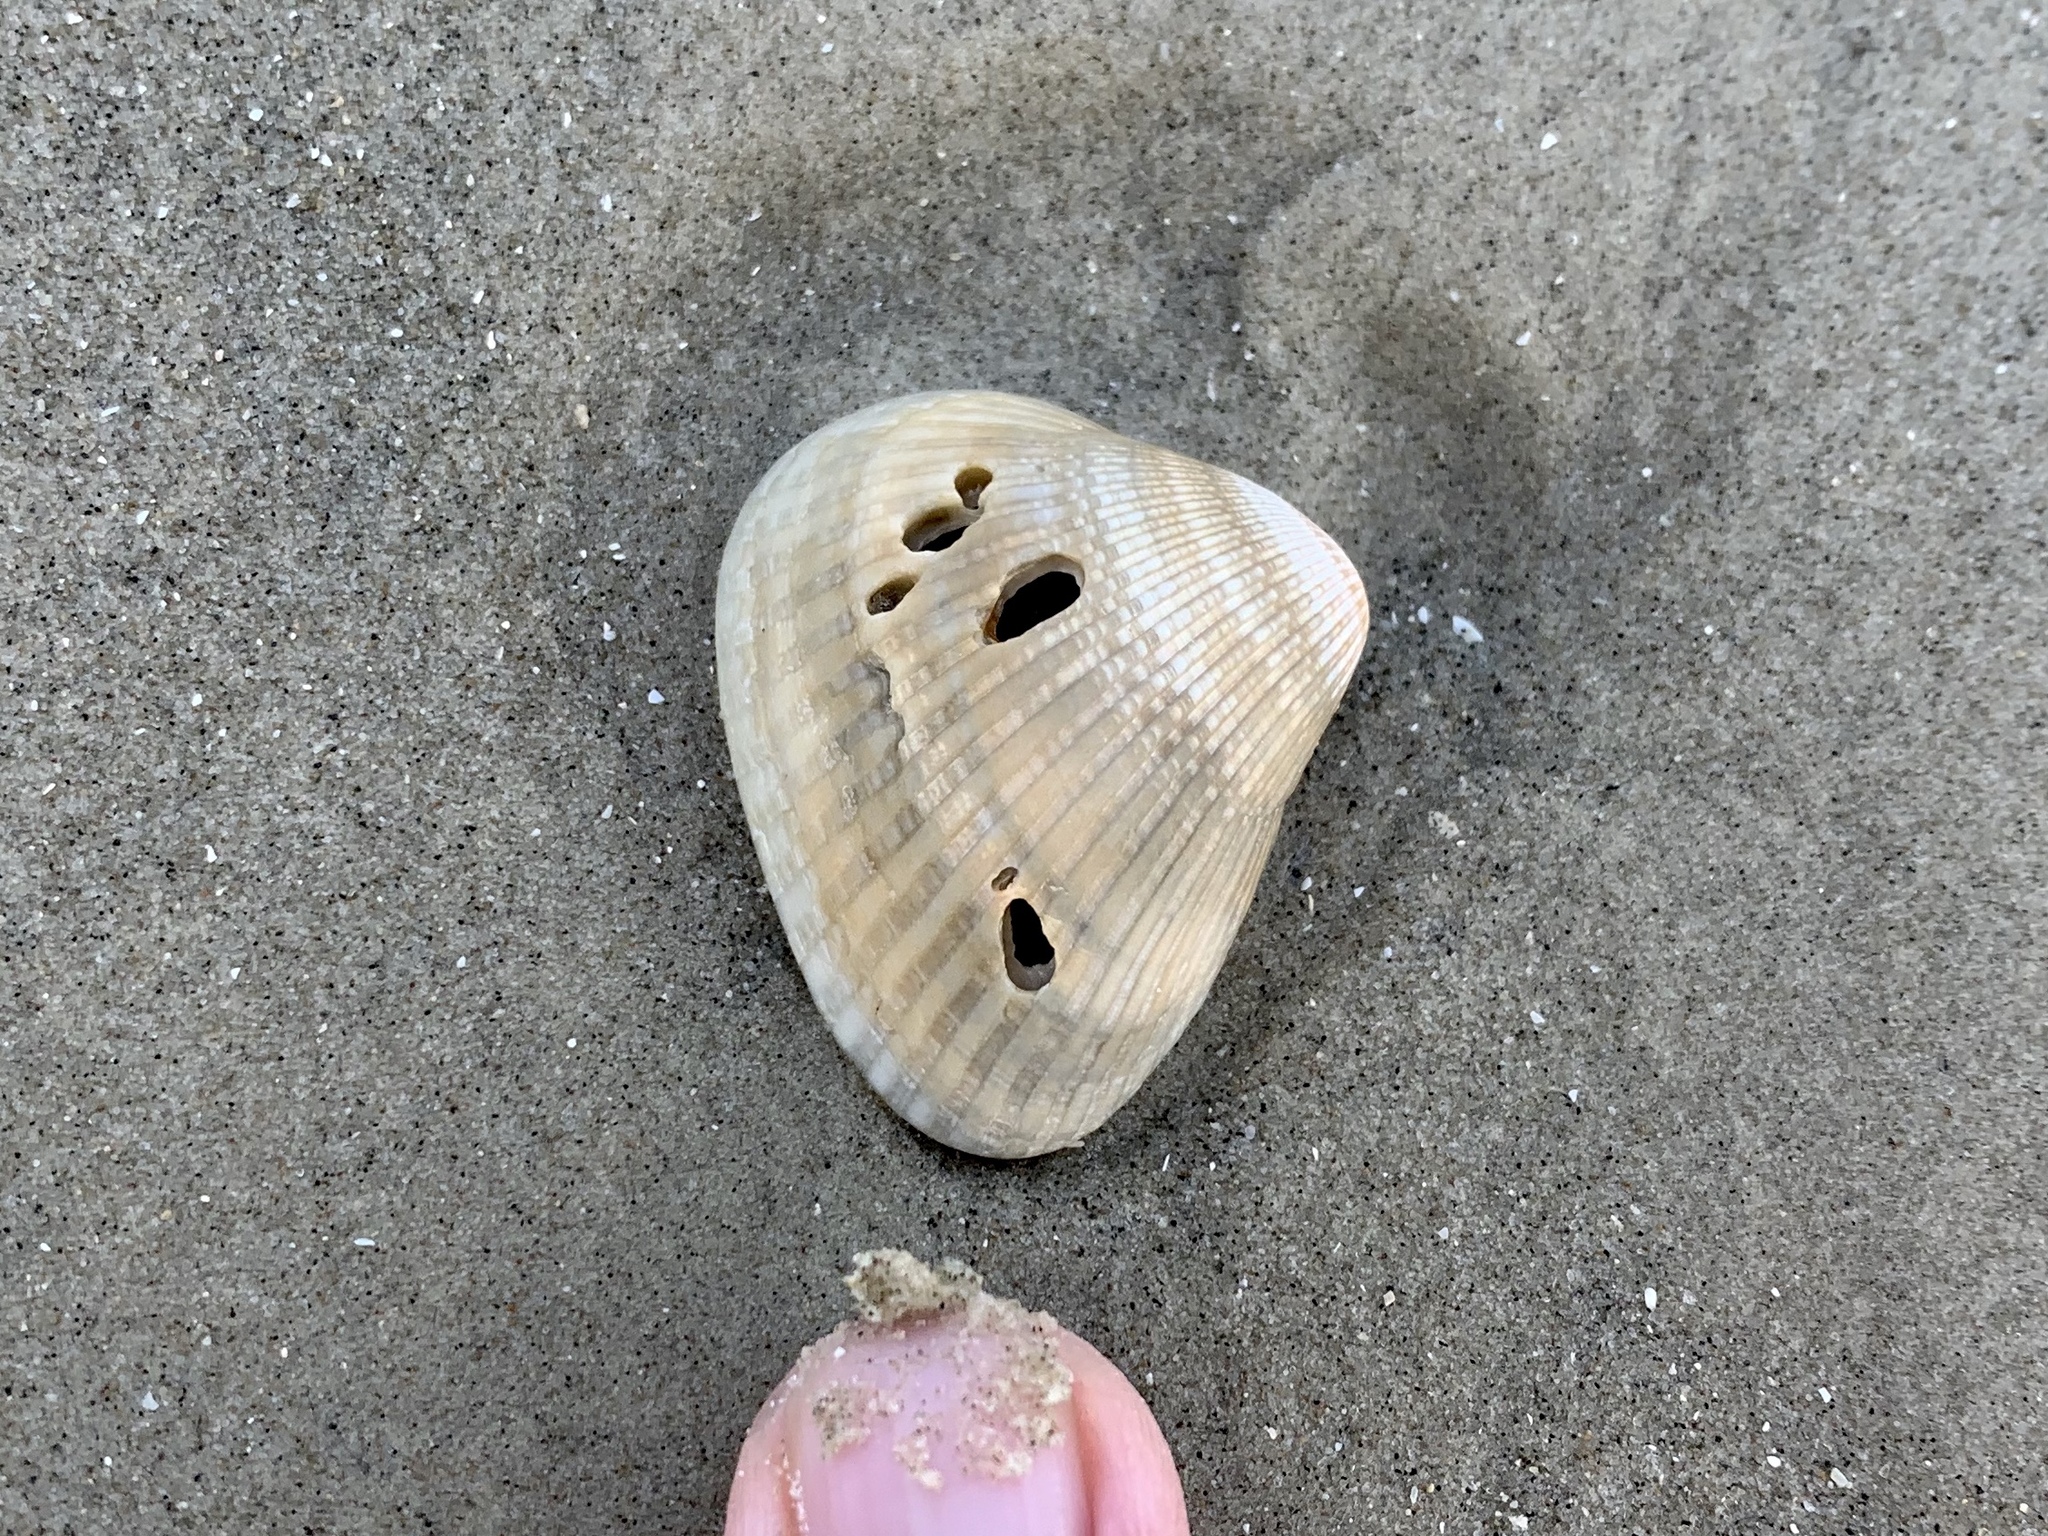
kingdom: Animalia
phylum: Mollusca
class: Bivalvia
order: Arcida
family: Noetiidae
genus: Noetia
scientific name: Noetia ponderosa
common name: Ponderous ark
